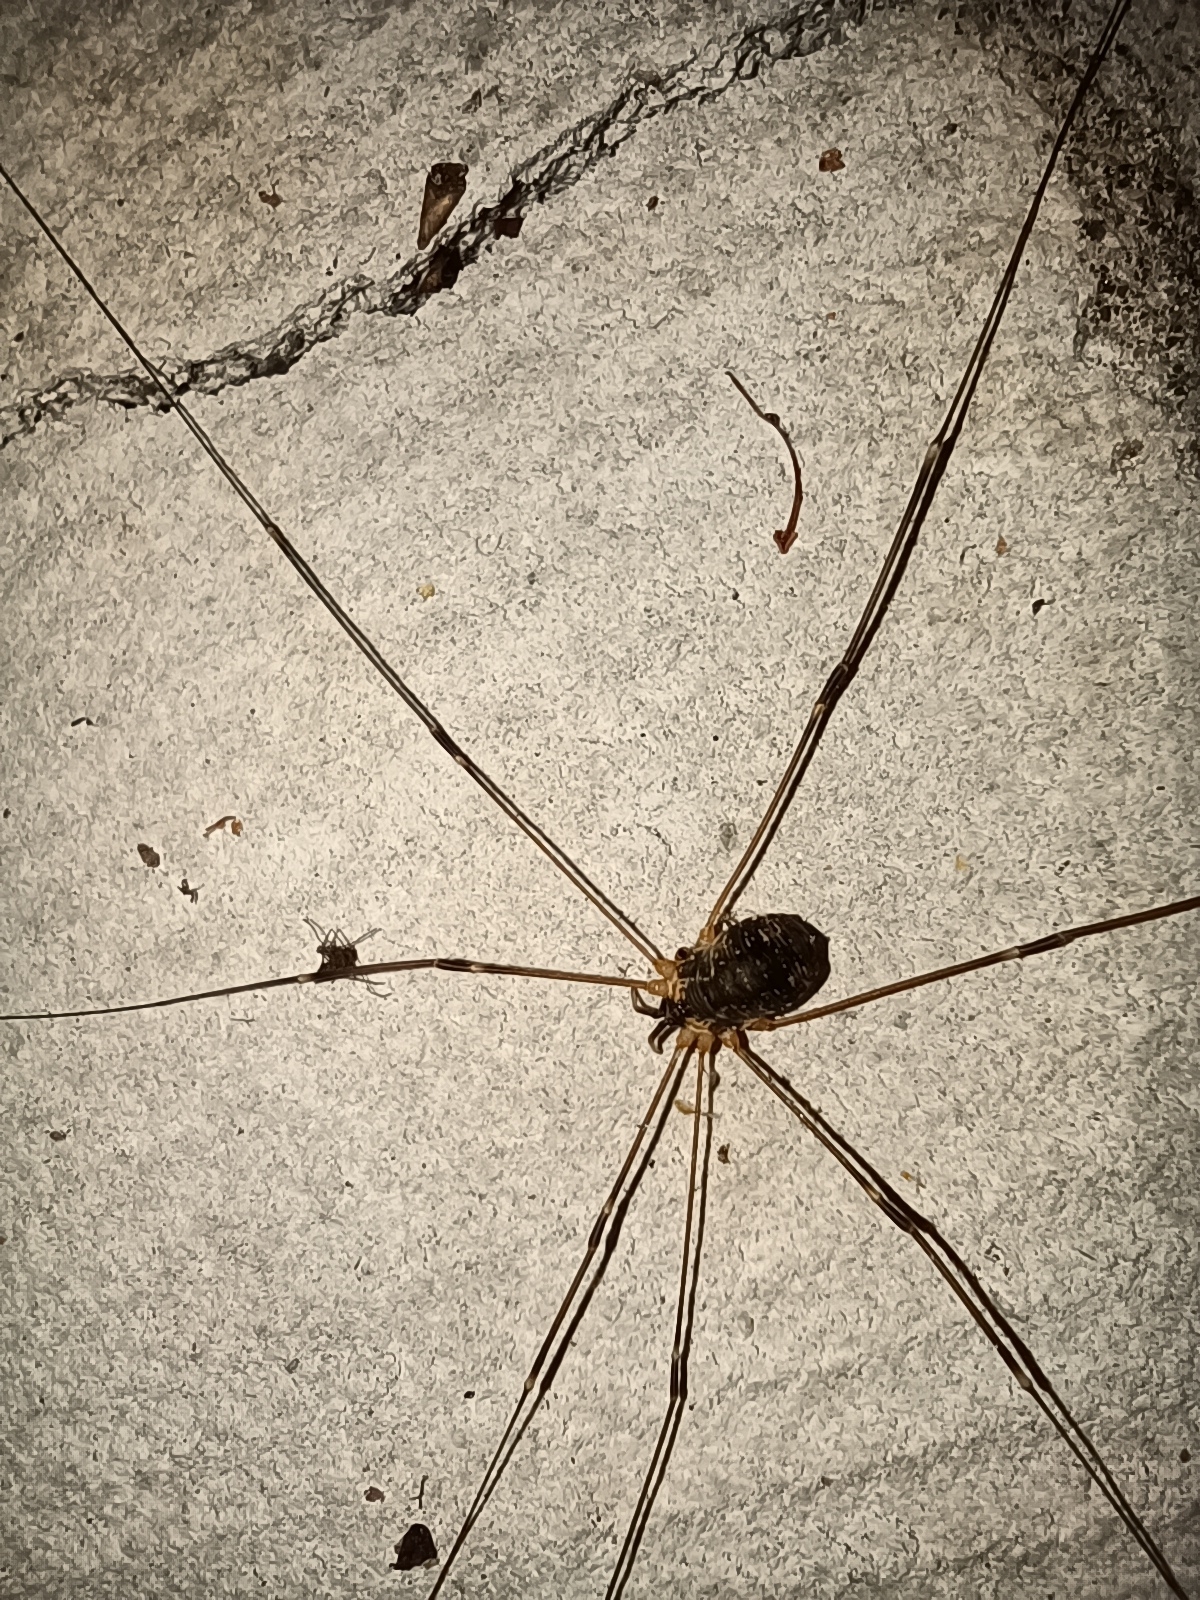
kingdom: Animalia
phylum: Arthropoda
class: Arachnida
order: Opiliones
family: Sclerosomatidae
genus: Leiobunum
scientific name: Leiobunum gracile
